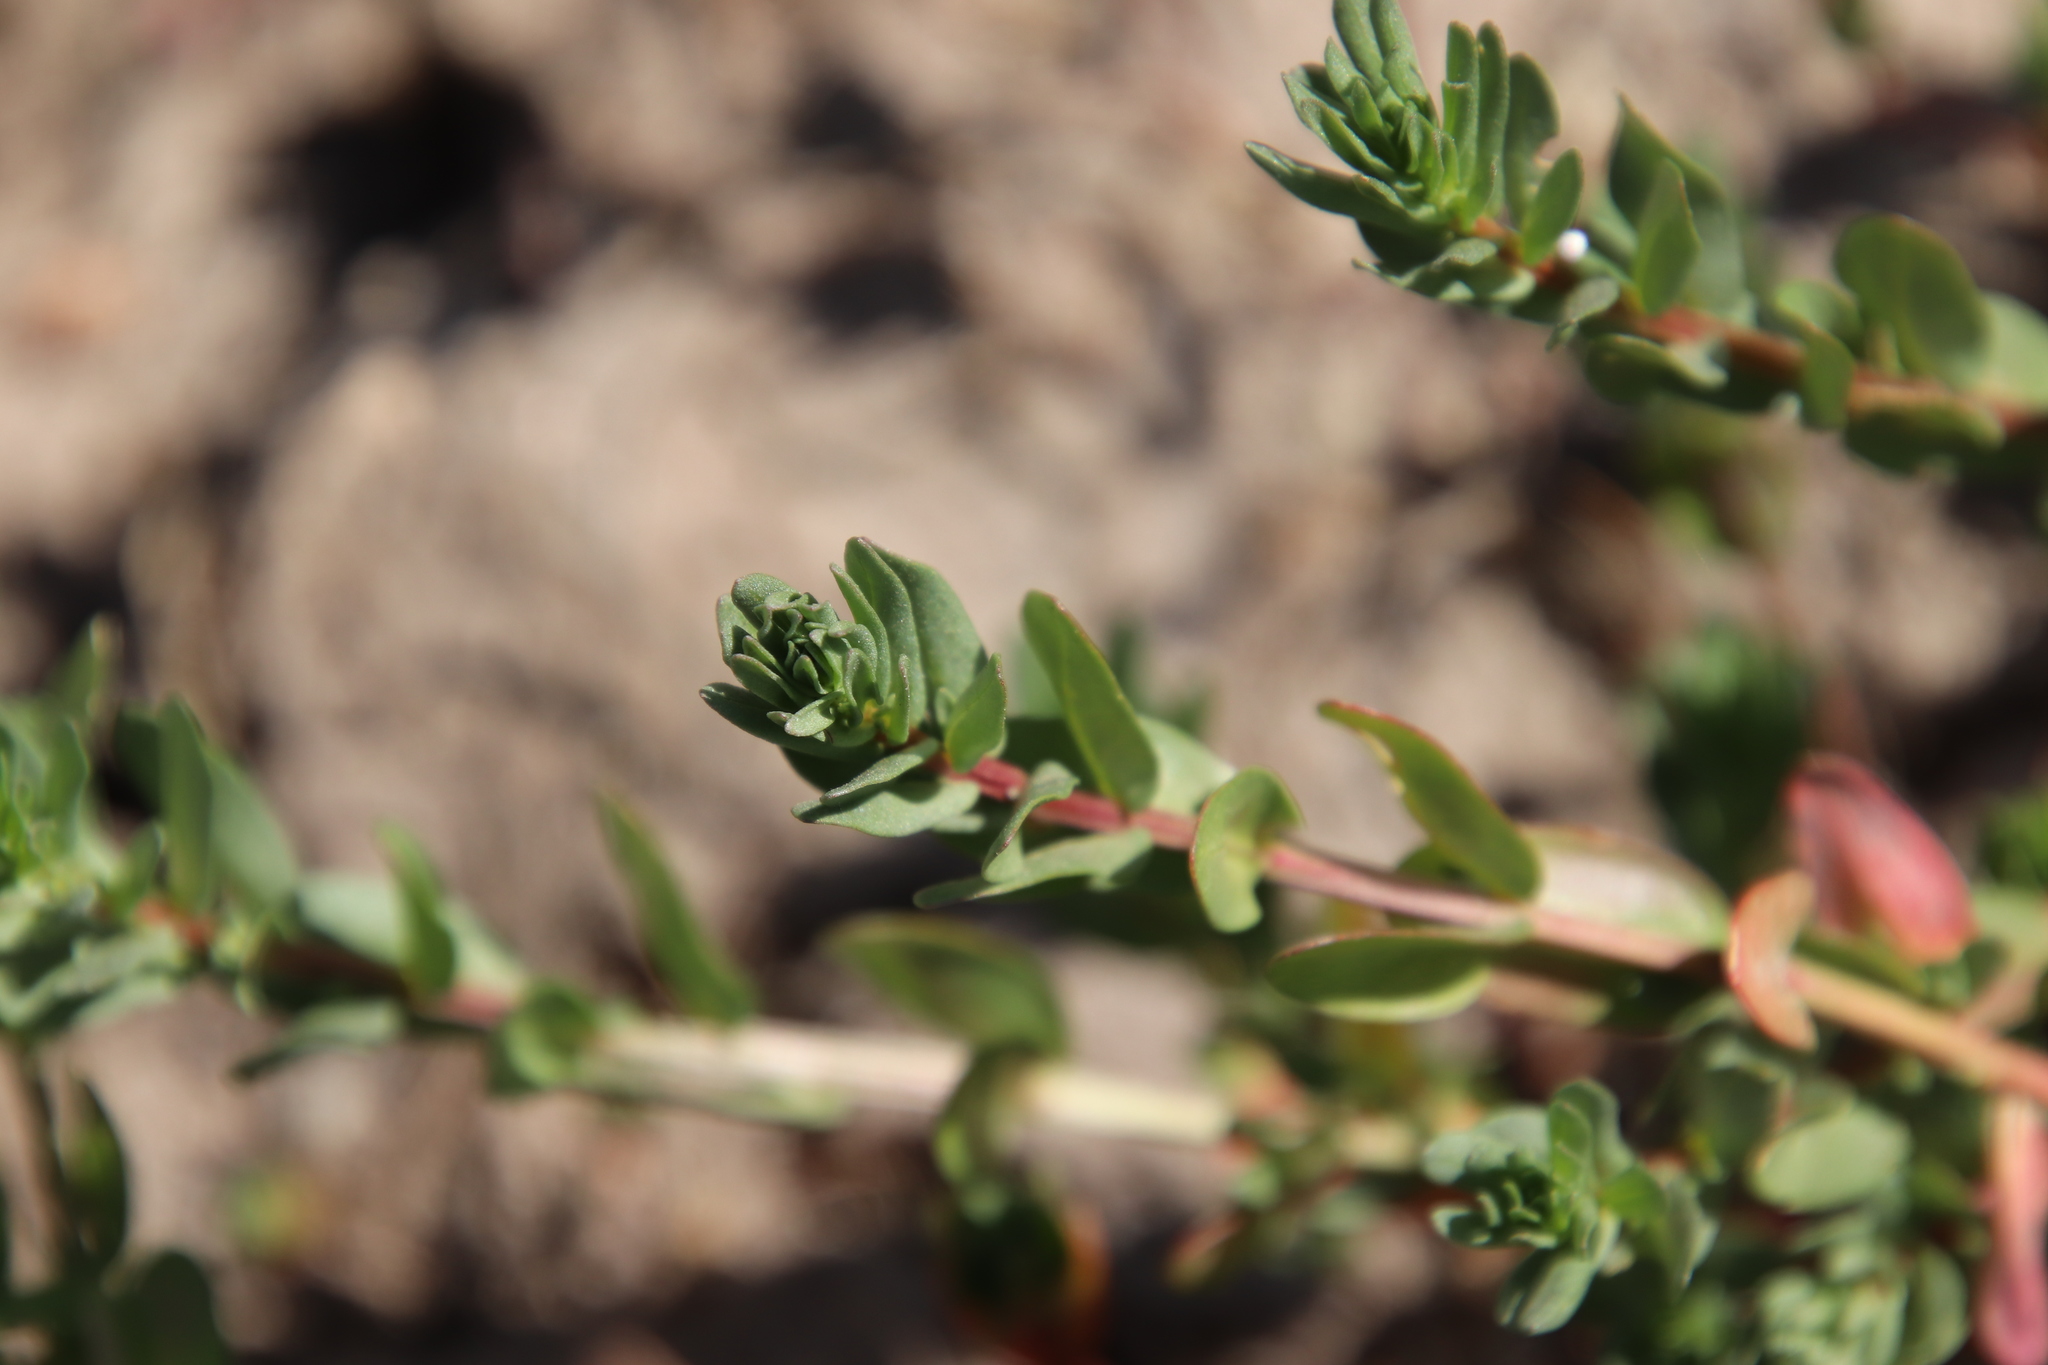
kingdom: Plantae
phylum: Tracheophyta
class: Magnoliopsida
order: Myrtales
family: Lythraceae
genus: Lythrum
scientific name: Lythrum hyssopifolia
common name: Grass-poly
